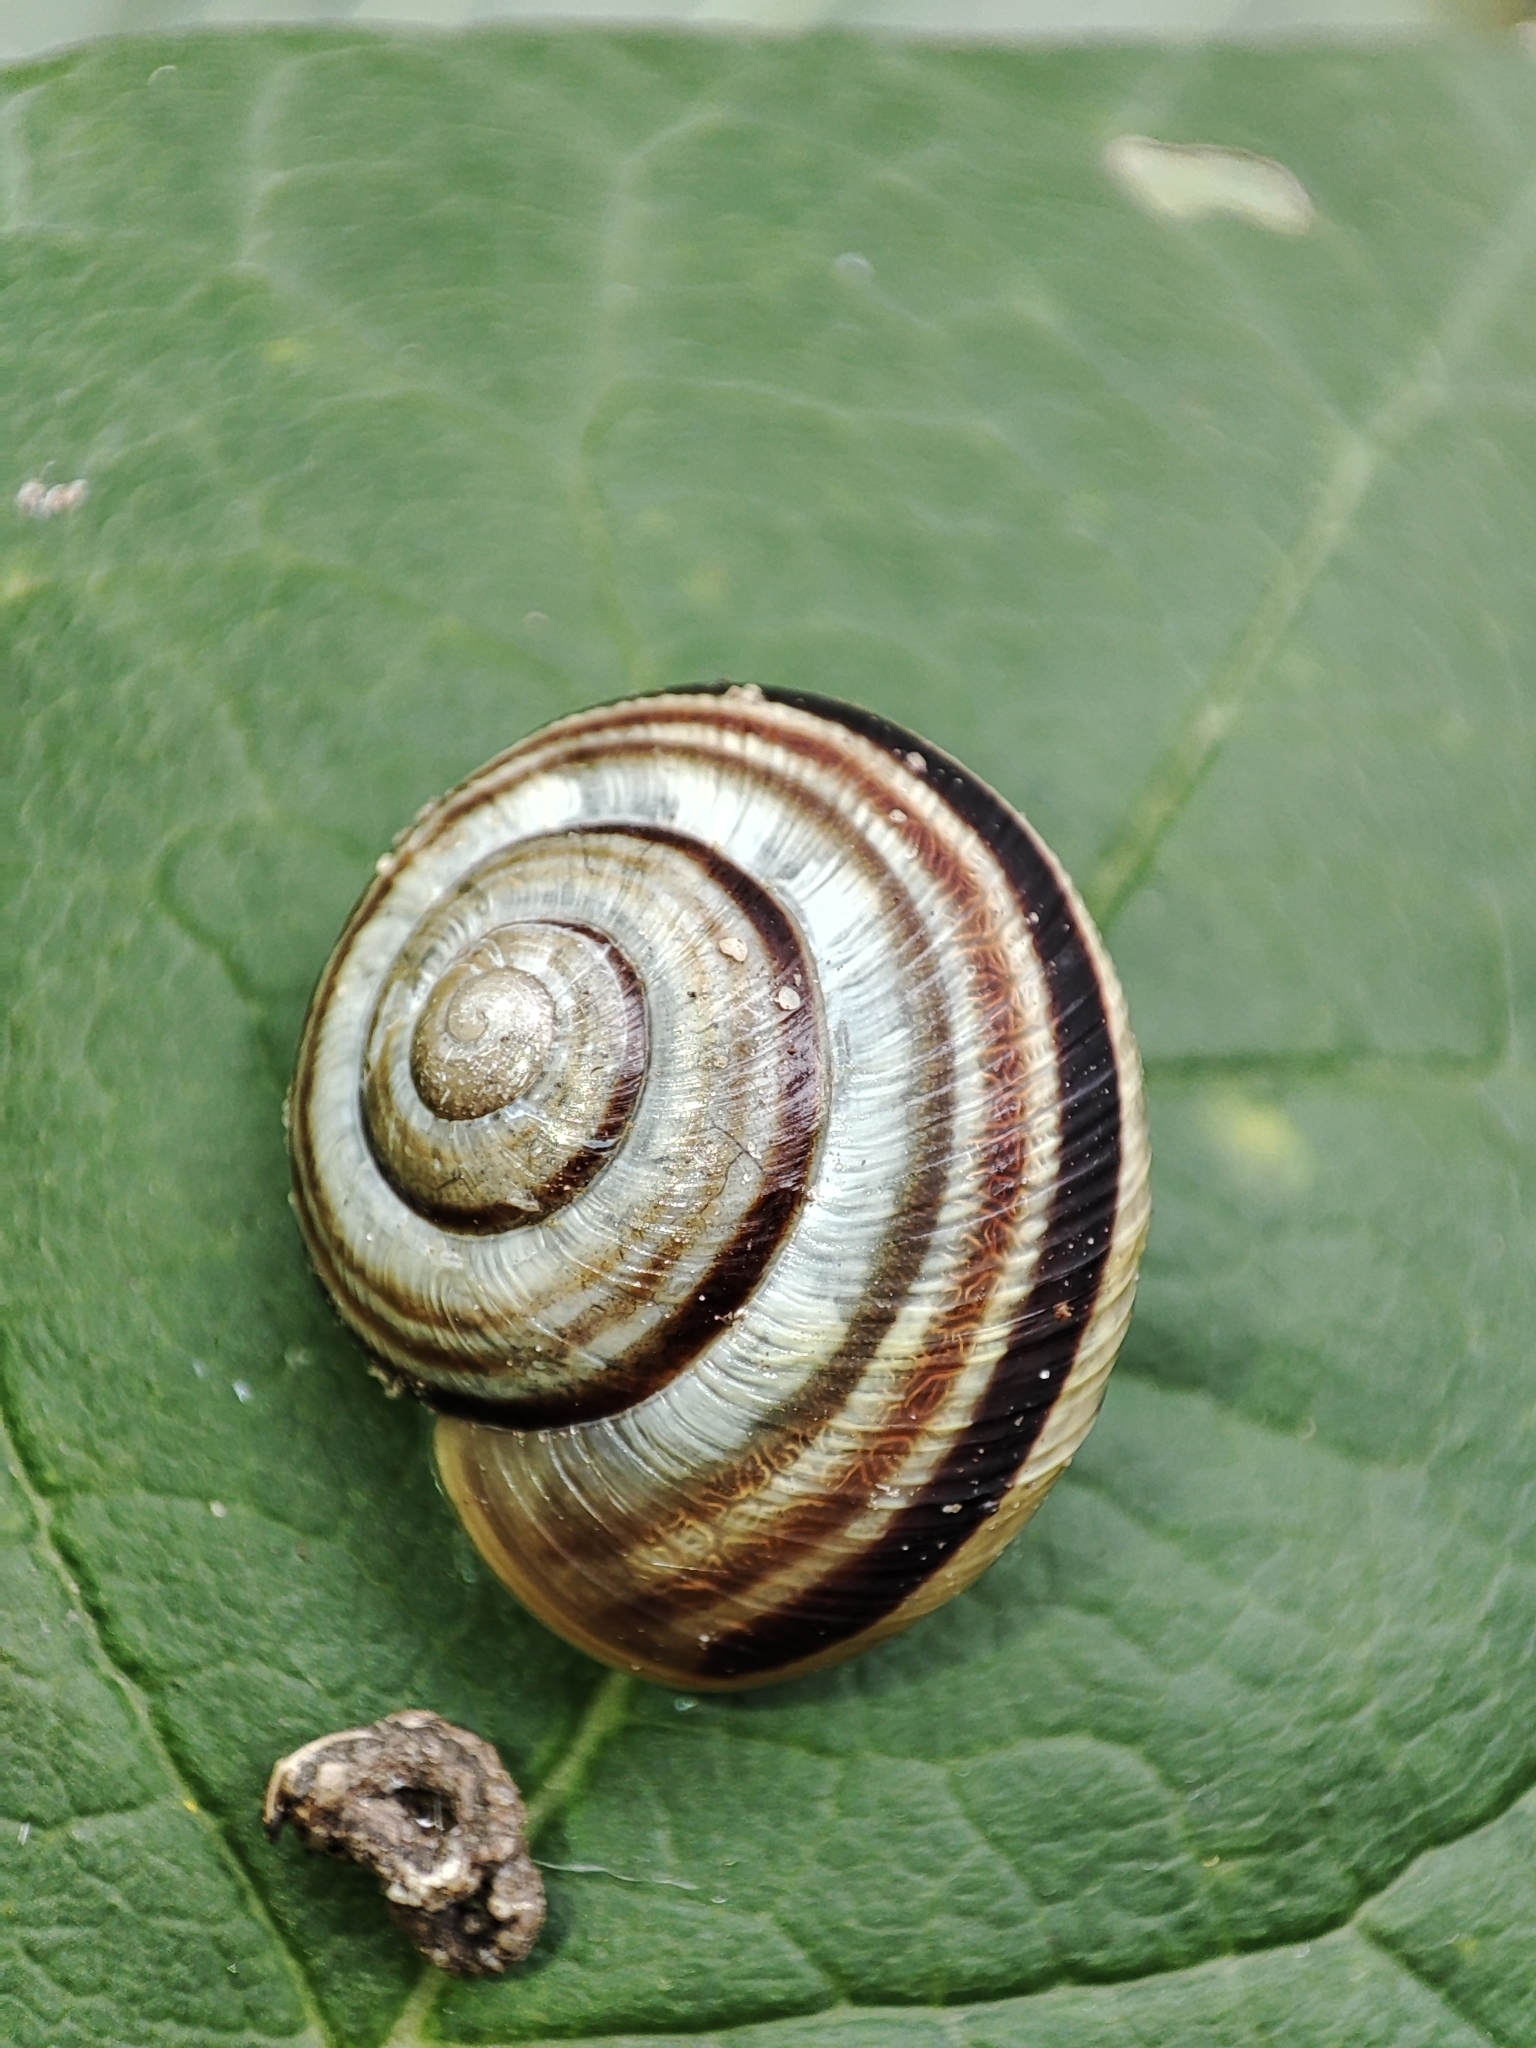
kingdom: Animalia
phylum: Mollusca
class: Gastropoda
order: Stylommatophora
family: Helicidae
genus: Caucasotachea
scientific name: Caucasotachea vindobonensis
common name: European helicid land snail
